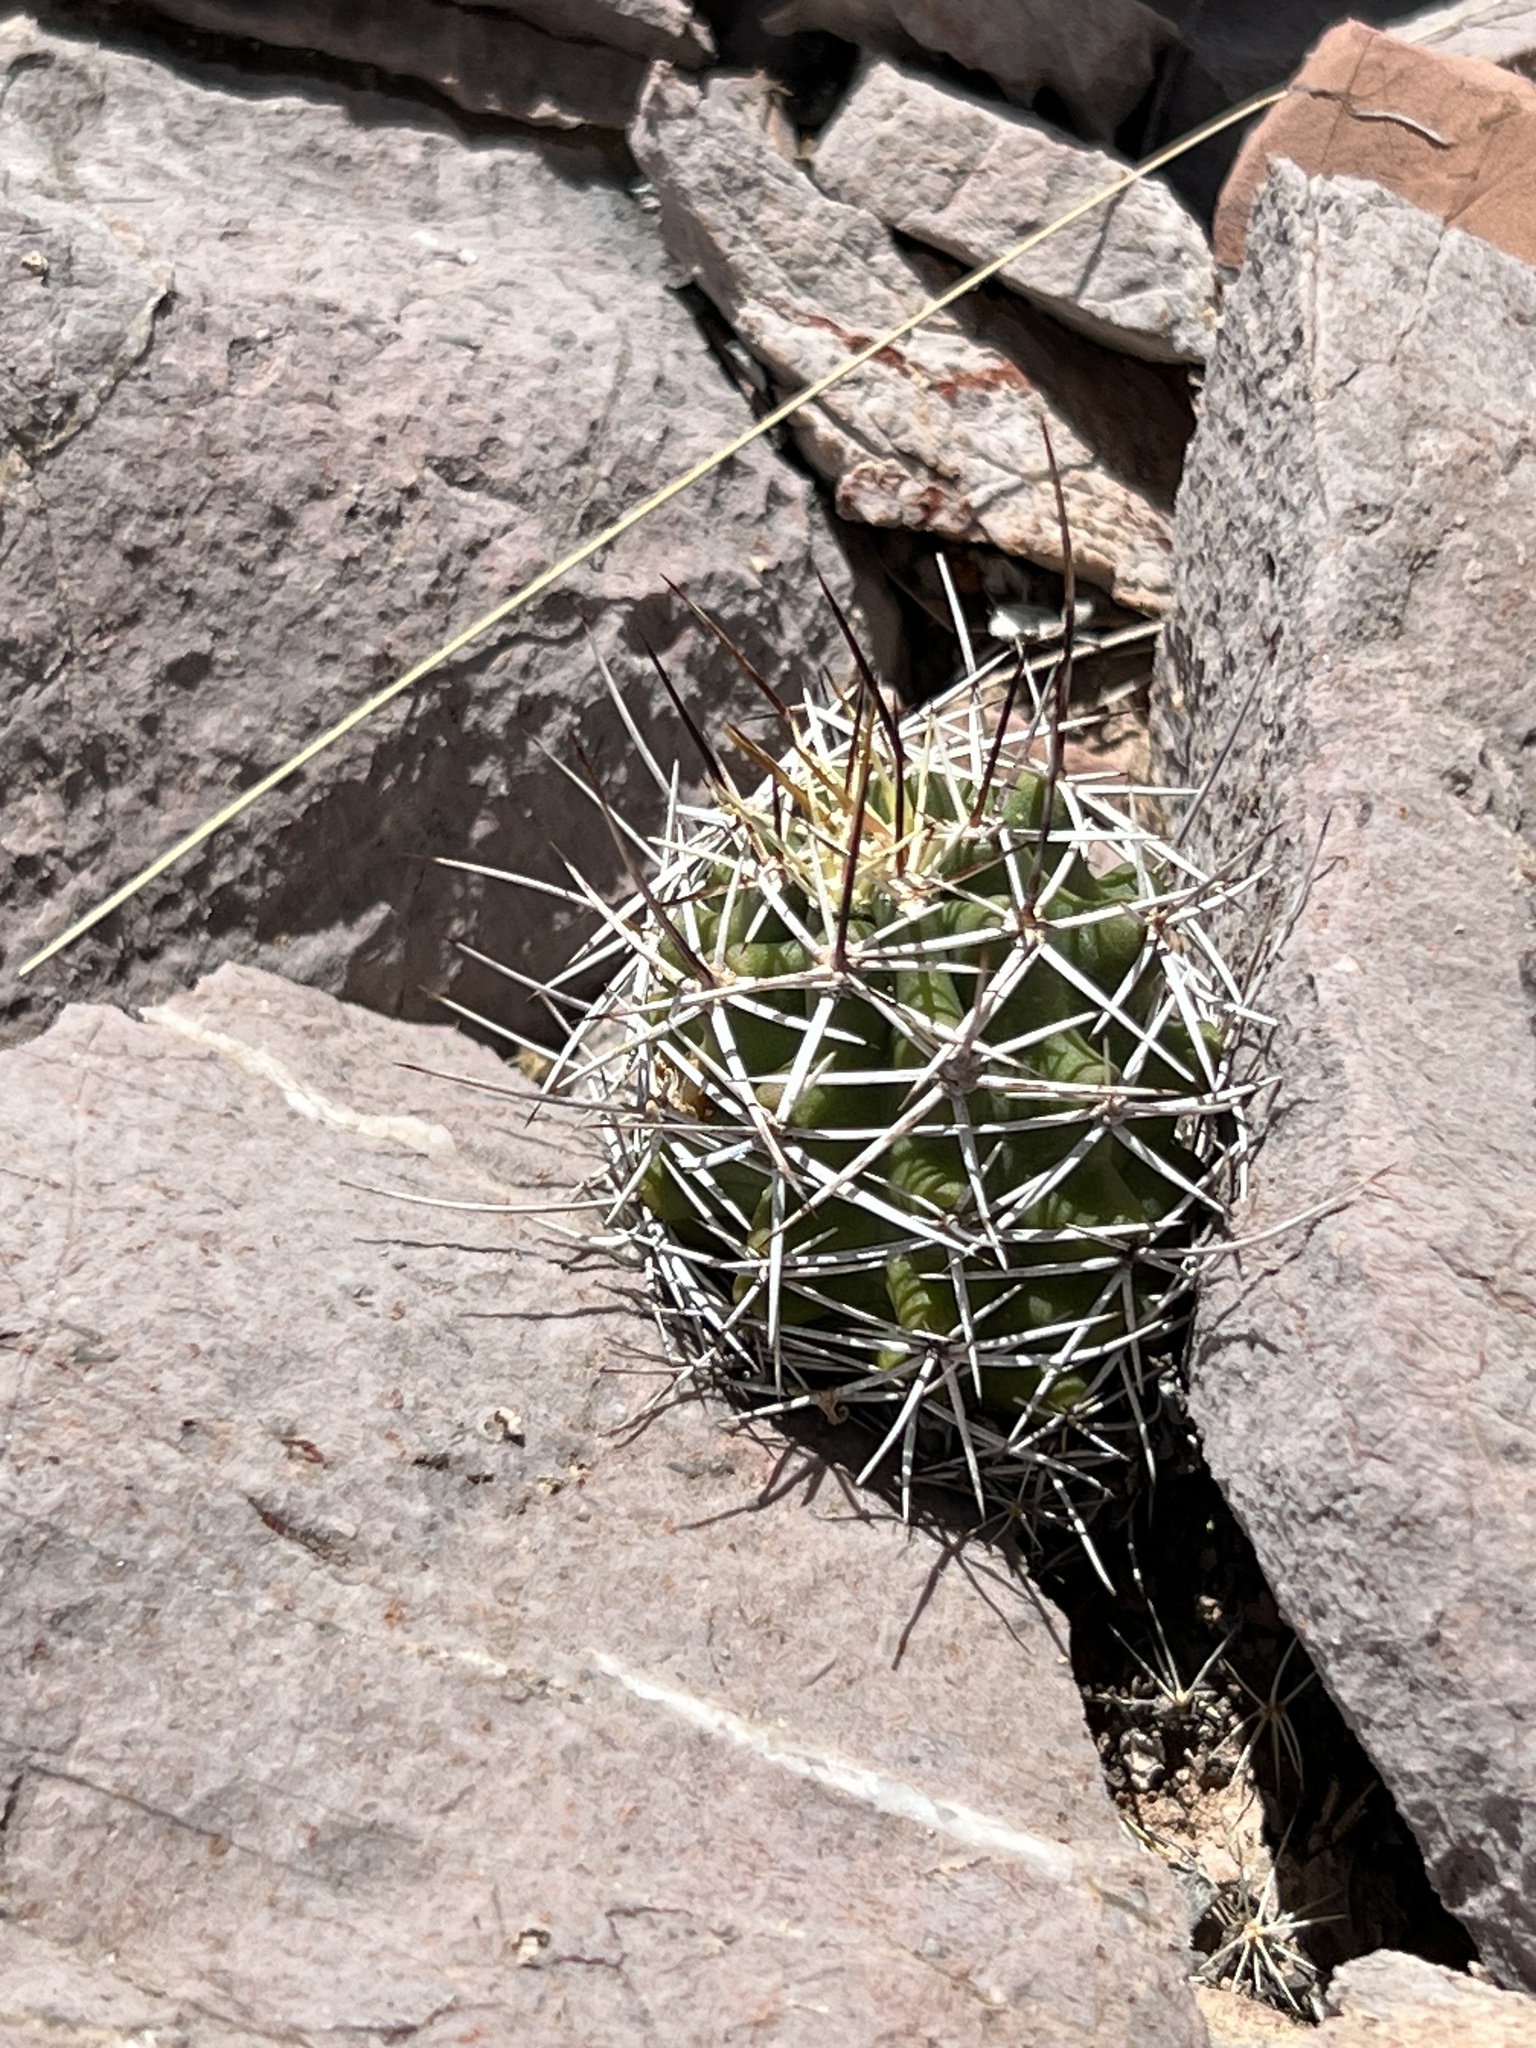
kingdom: Plantae
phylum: Tracheophyta
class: Magnoliopsida
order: Caryophyllales
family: Cactaceae
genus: Echinocereus
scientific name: Echinocereus fendleri
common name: Fendler's hedgehog cactus
